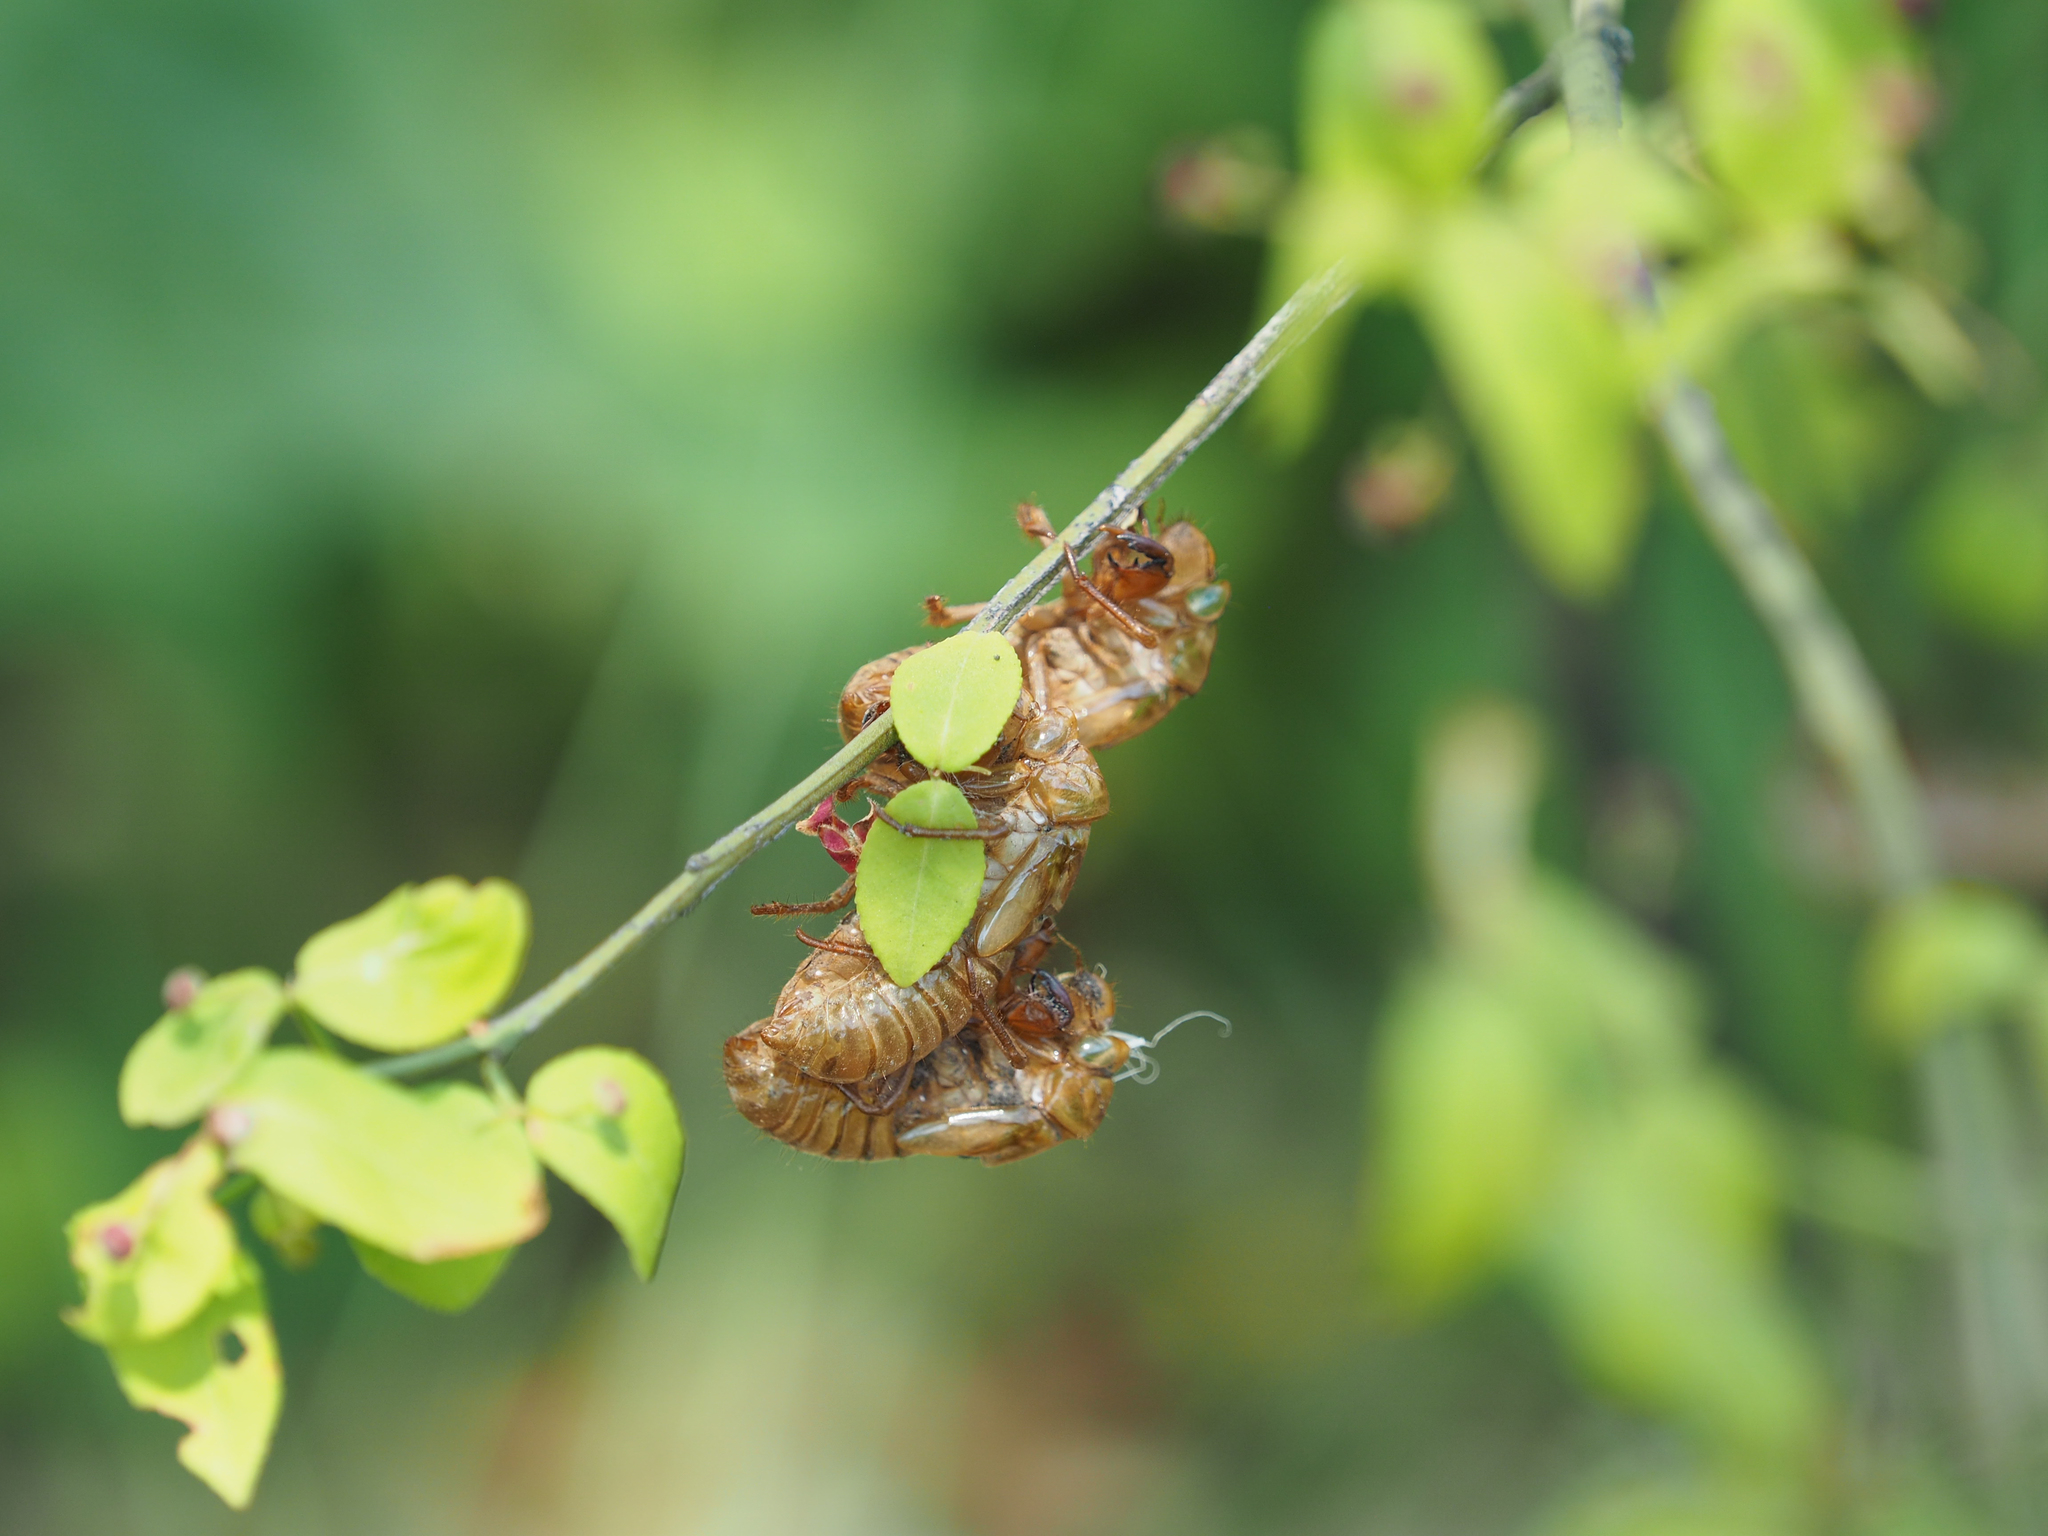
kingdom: Animalia
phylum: Arthropoda
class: Insecta
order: Hemiptera
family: Cicadidae
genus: Magicicada
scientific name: Magicicada
